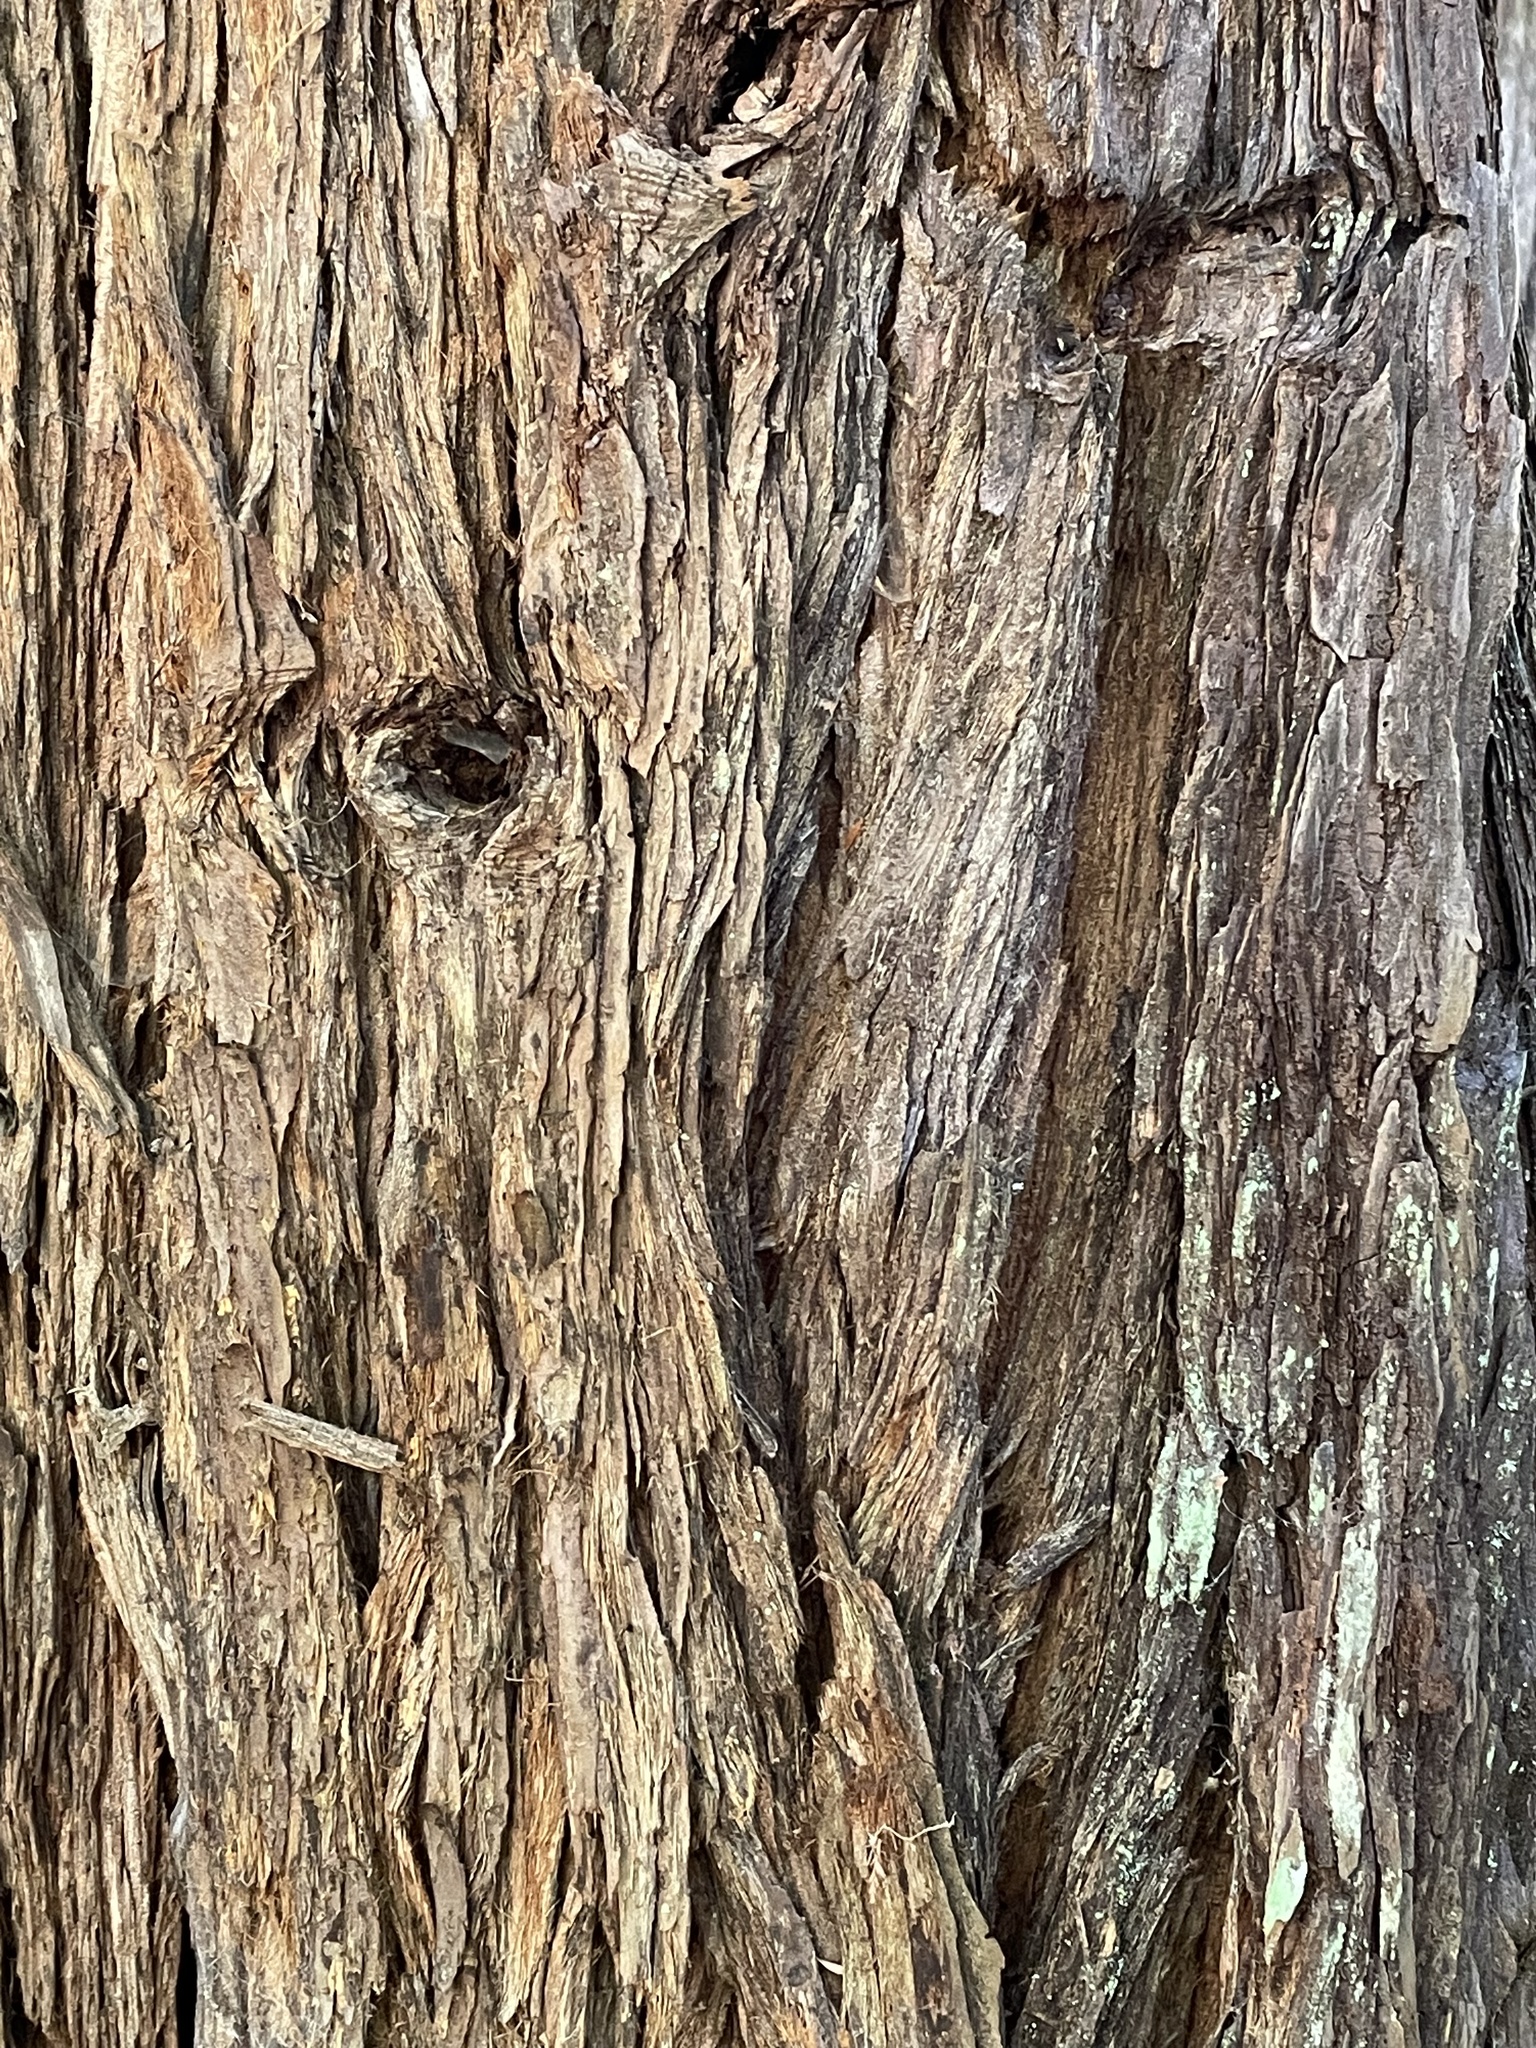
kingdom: Plantae
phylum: Tracheophyta
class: Pinopsida
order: Pinales
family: Cupressaceae
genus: Sequoia
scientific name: Sequoia sempervirens
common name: Coast redwood
